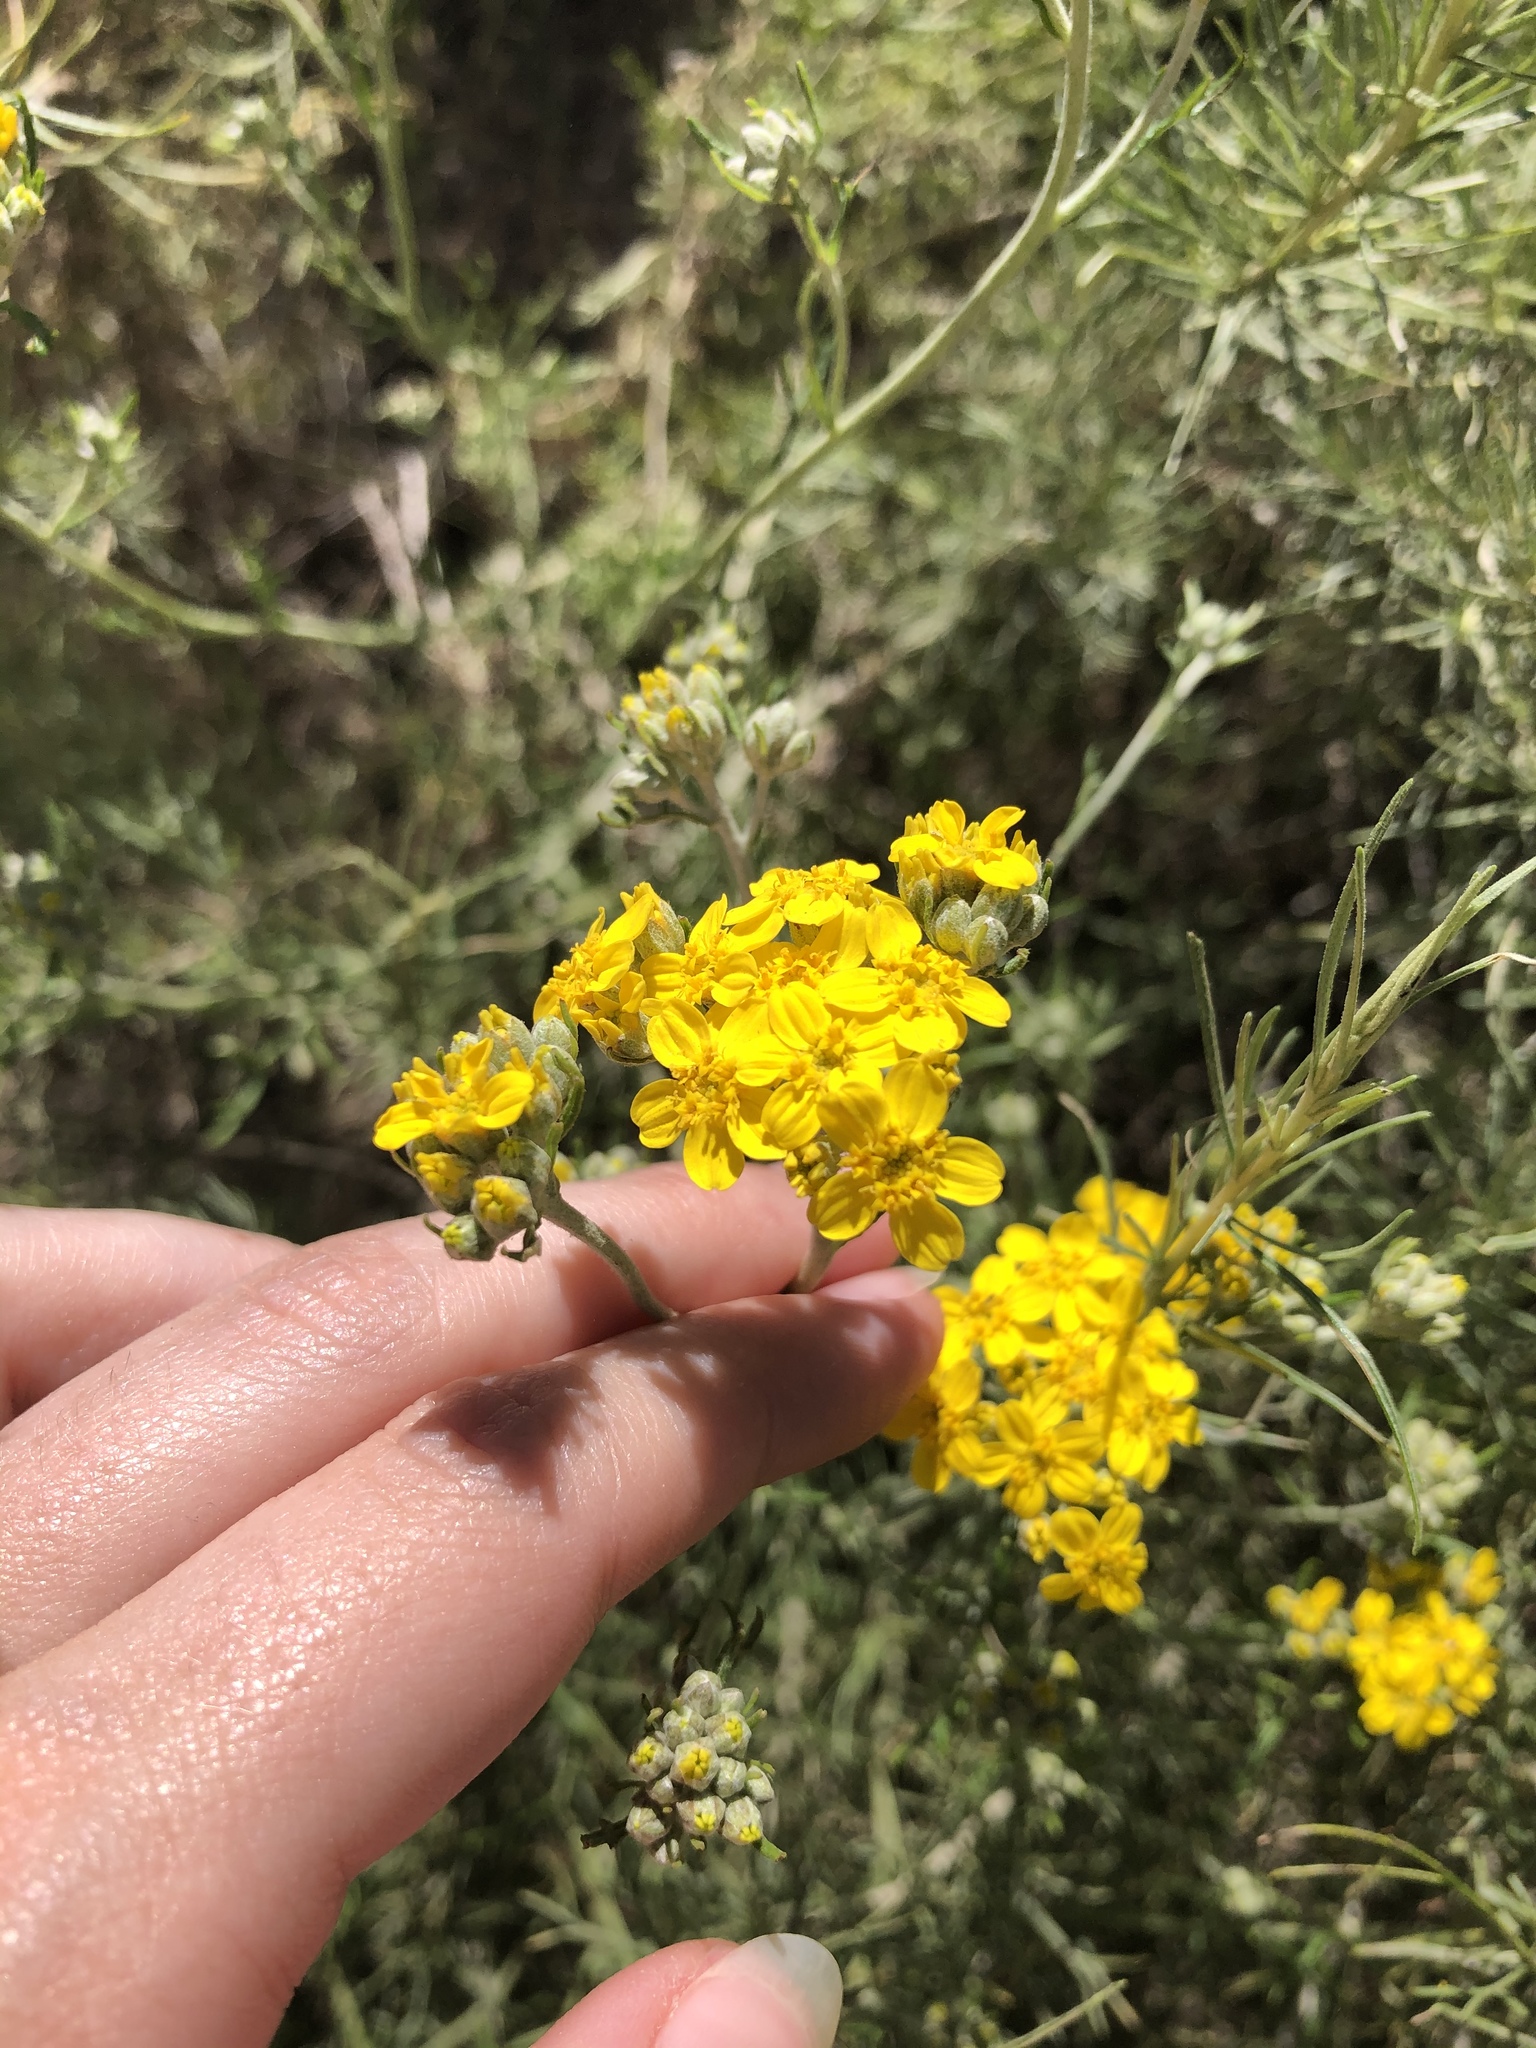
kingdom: Plantae
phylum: Tracheophyta
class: Magnoliopsida
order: Asterales
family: Asteraceae
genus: Eriophyllum
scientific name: Eriophyllum confertiflorum
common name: Golden-yarrow
